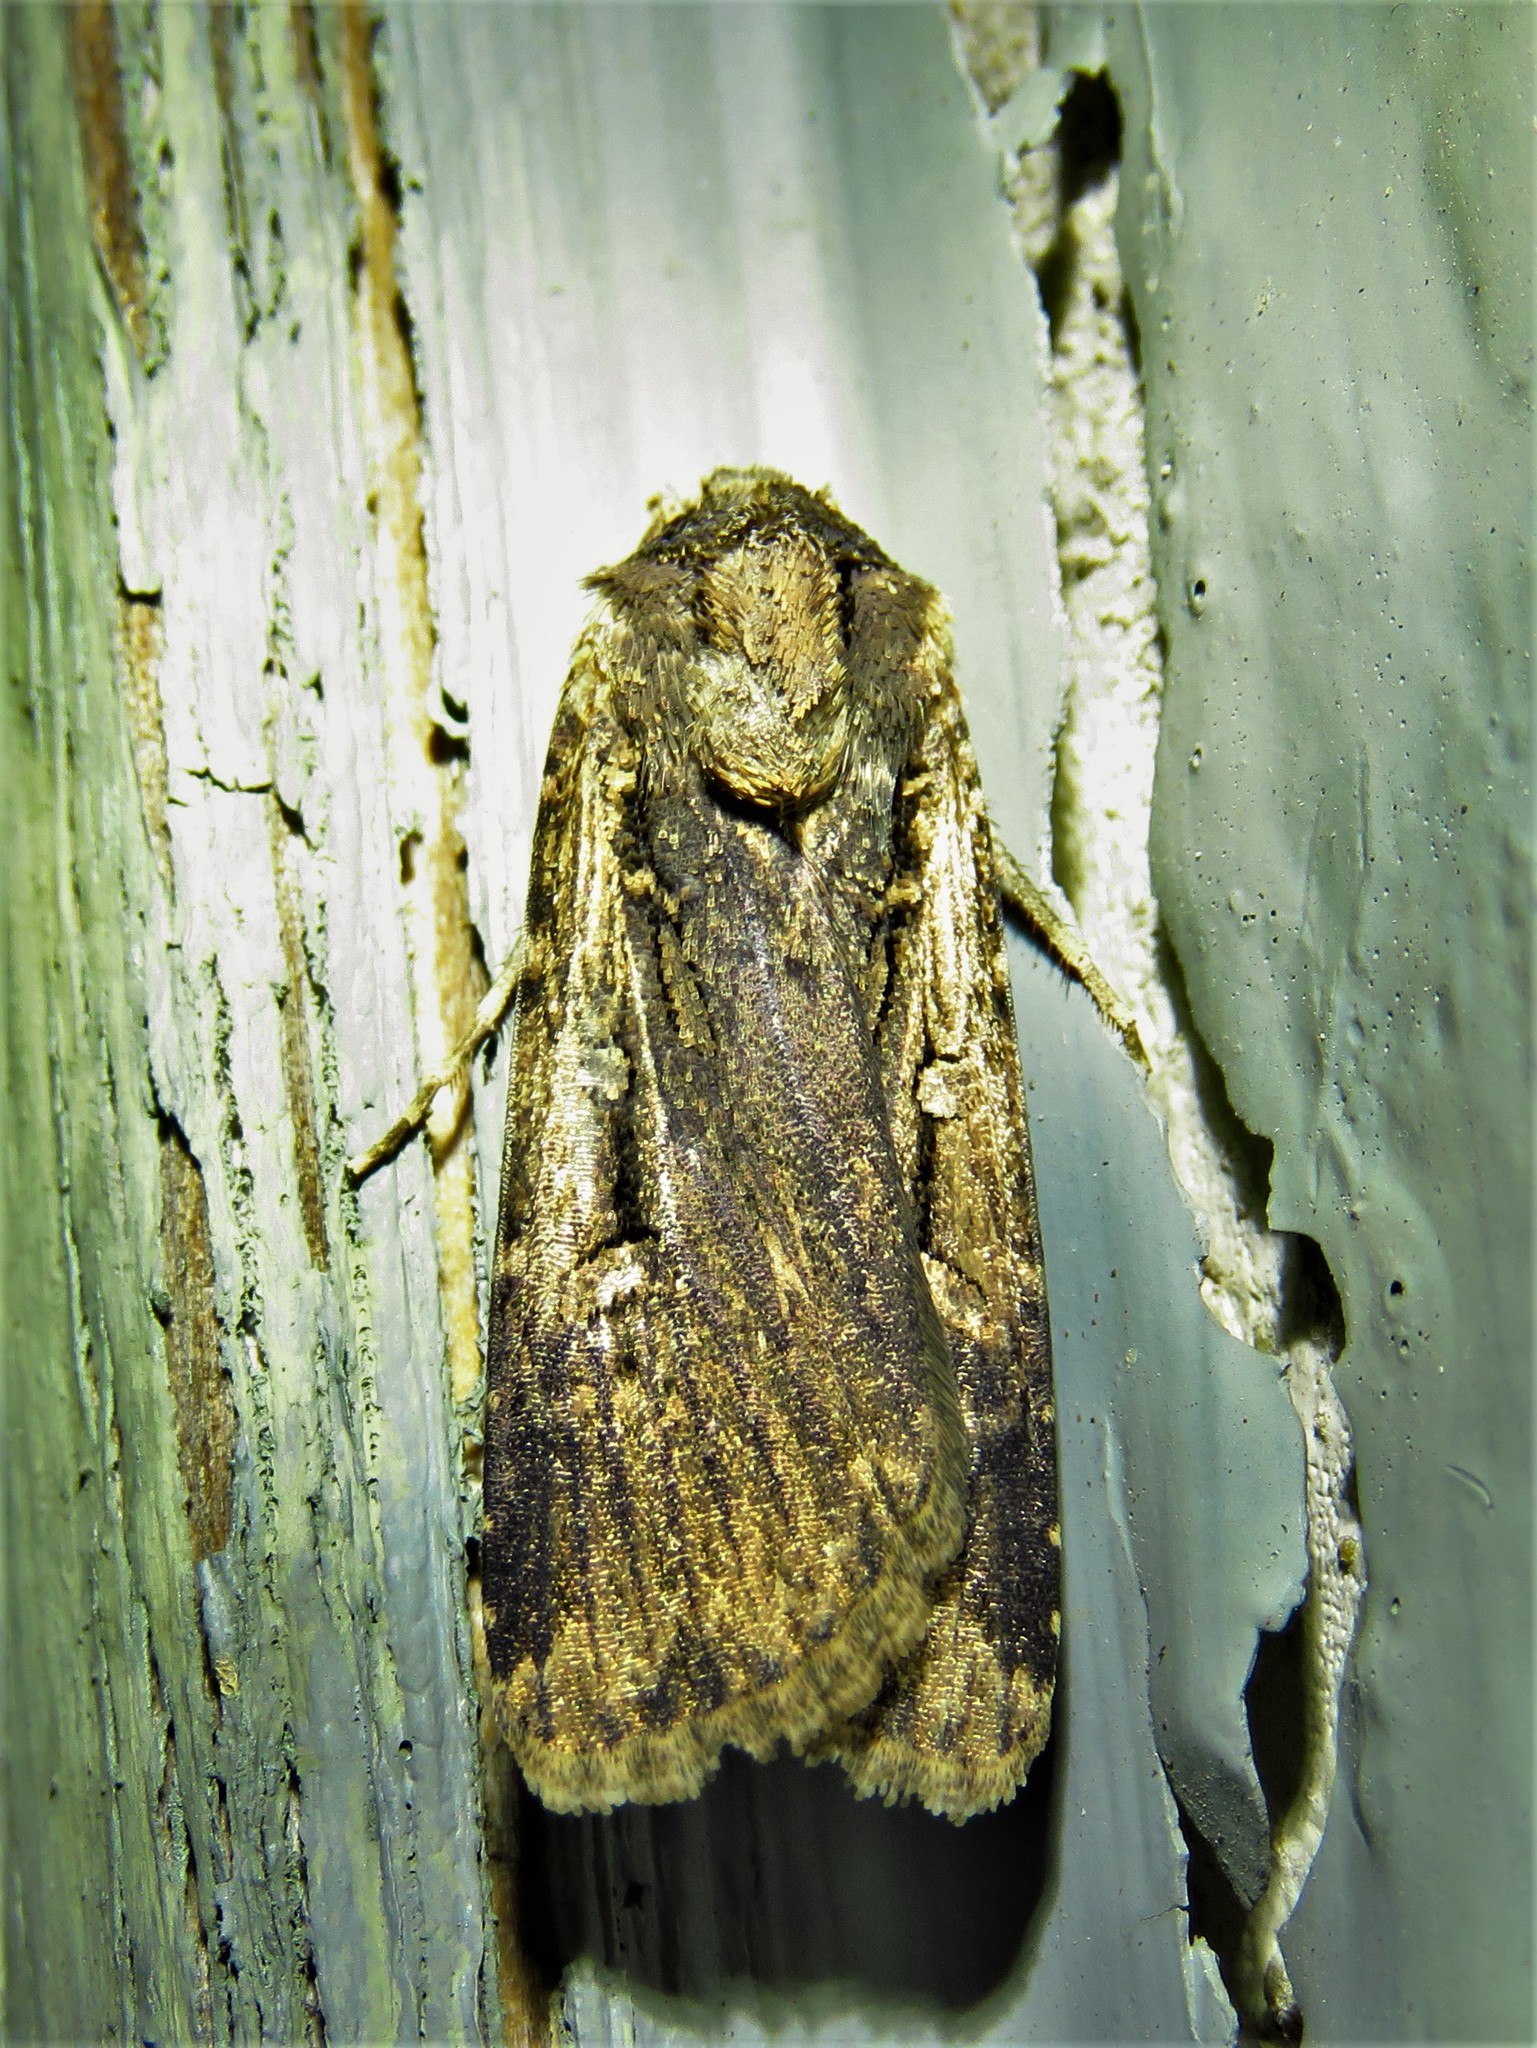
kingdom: Animalia
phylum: Arthropoda
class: Insecta
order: Lepidoptera
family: Noctuidae
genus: Feltia
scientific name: Feltia subterranea
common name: Granulate cutworm
